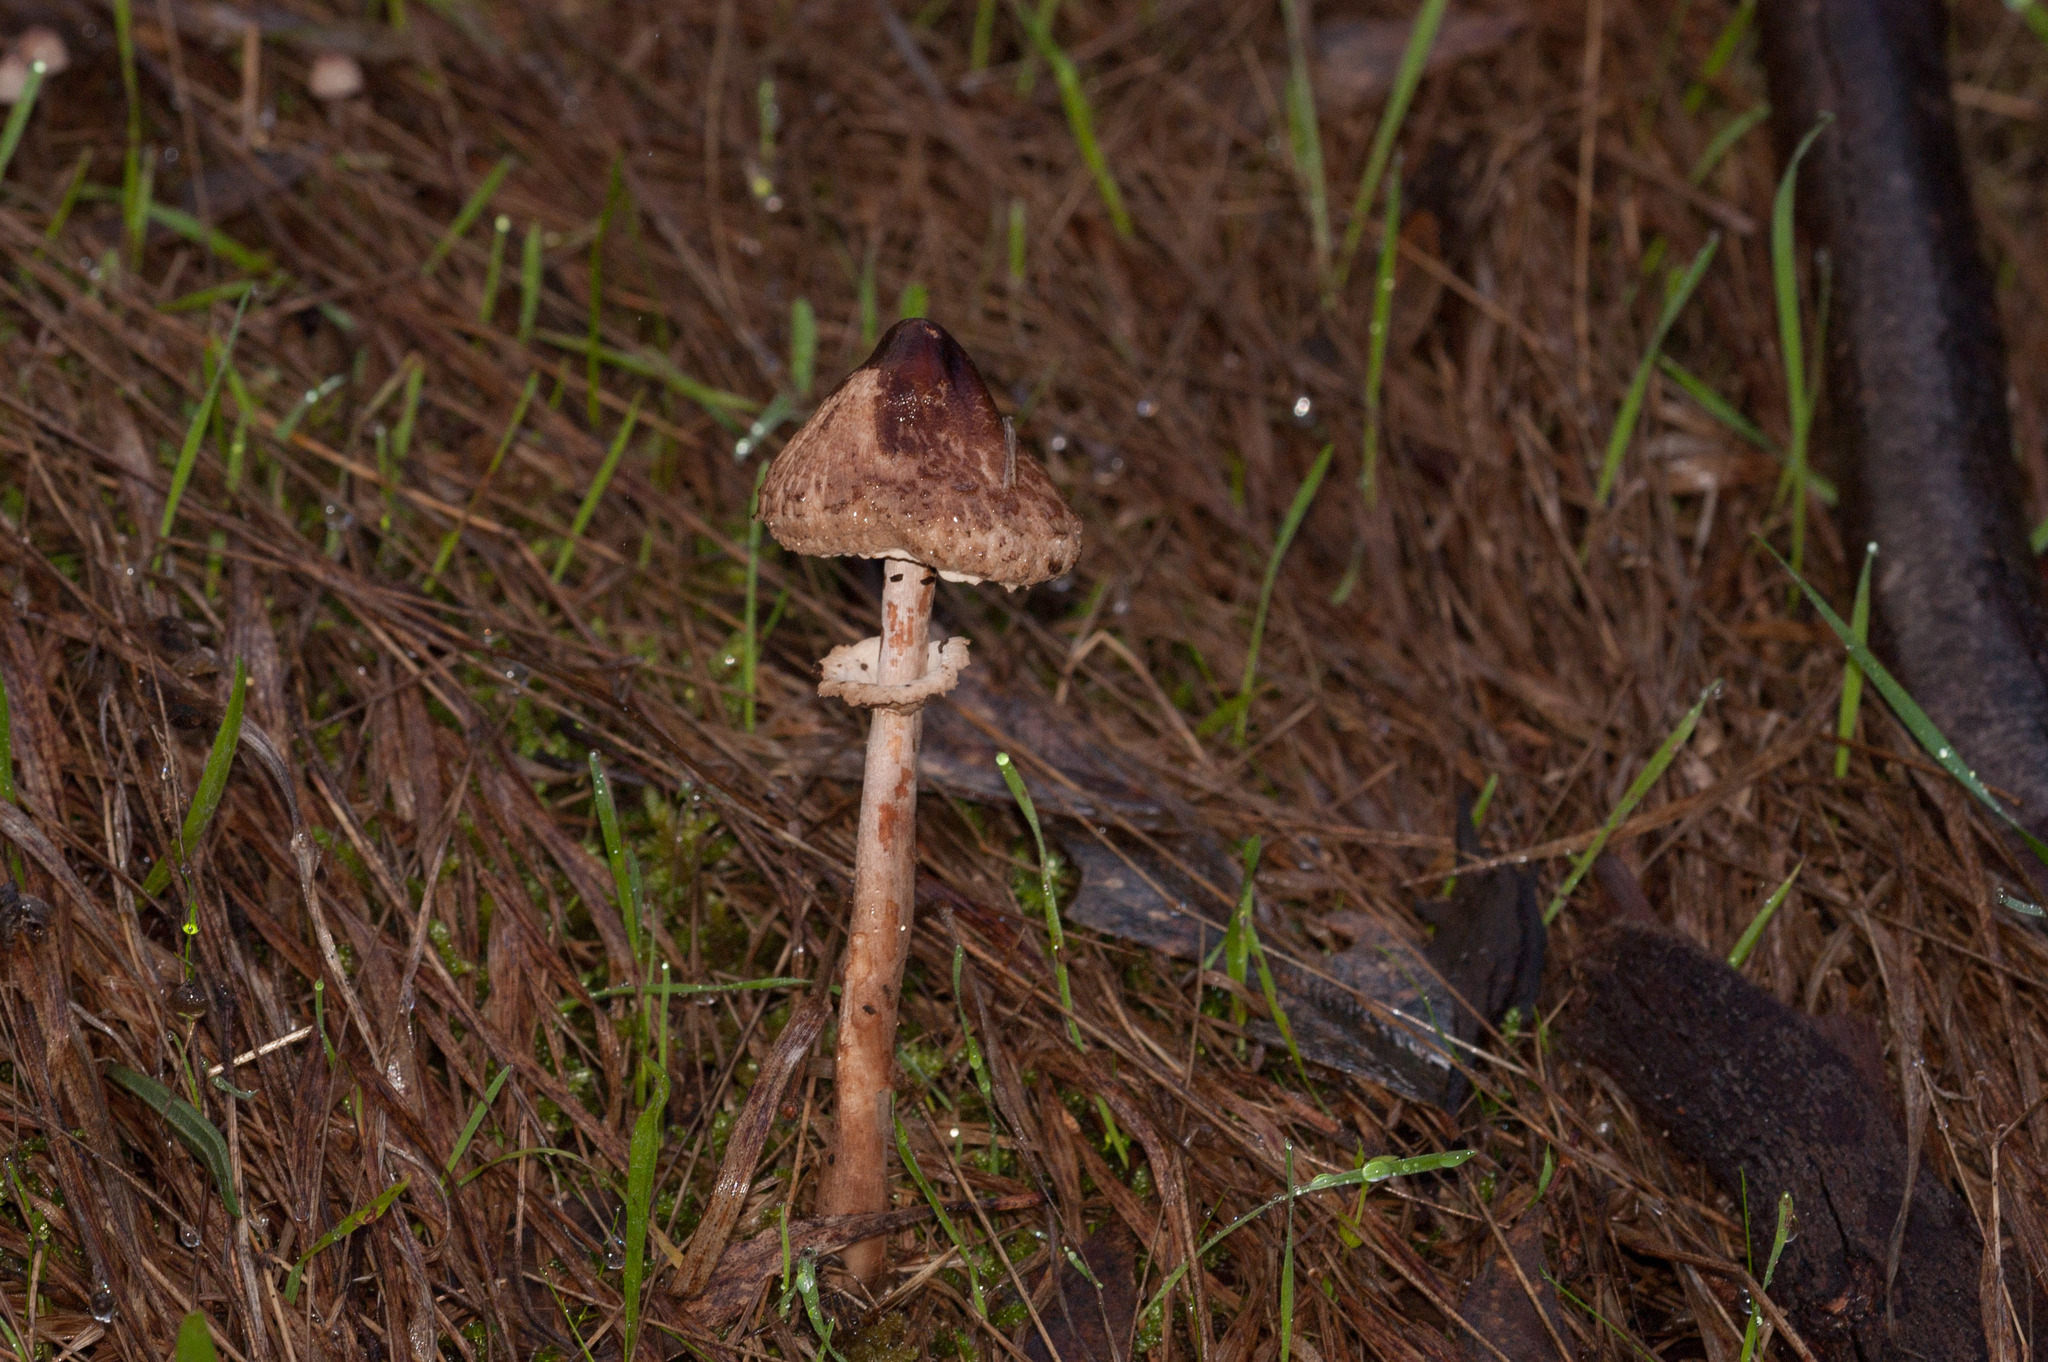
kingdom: Fungi
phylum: Basidiomycota
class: Agaricomycetes
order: Agaricales
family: Agaricaceae
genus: Macrolepiota
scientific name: Macrolepiota clelandii
